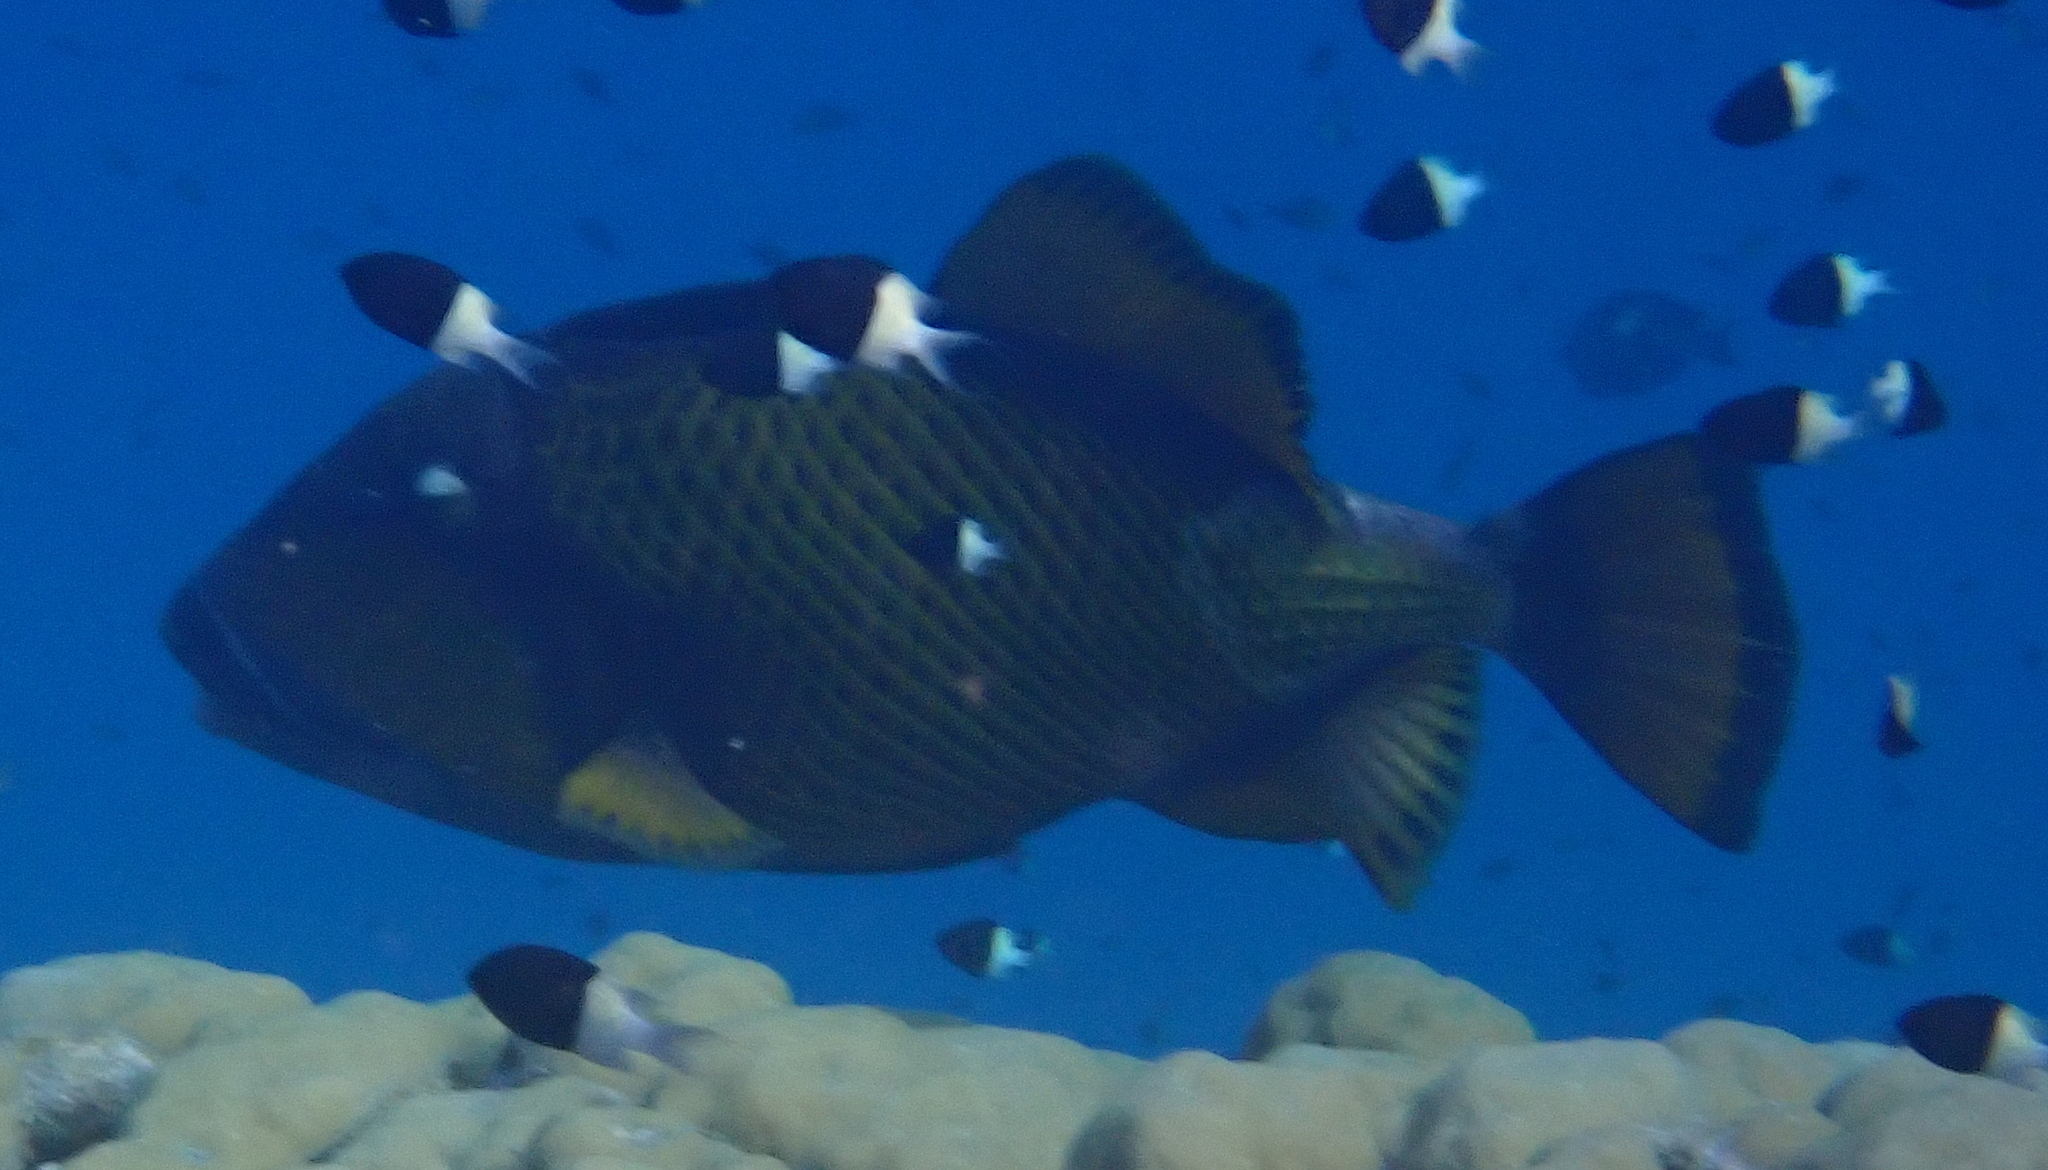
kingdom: Animalia
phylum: Chordata
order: Tetraodontiformes
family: Balistidae
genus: Balistoides
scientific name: Balistoides viridescens
